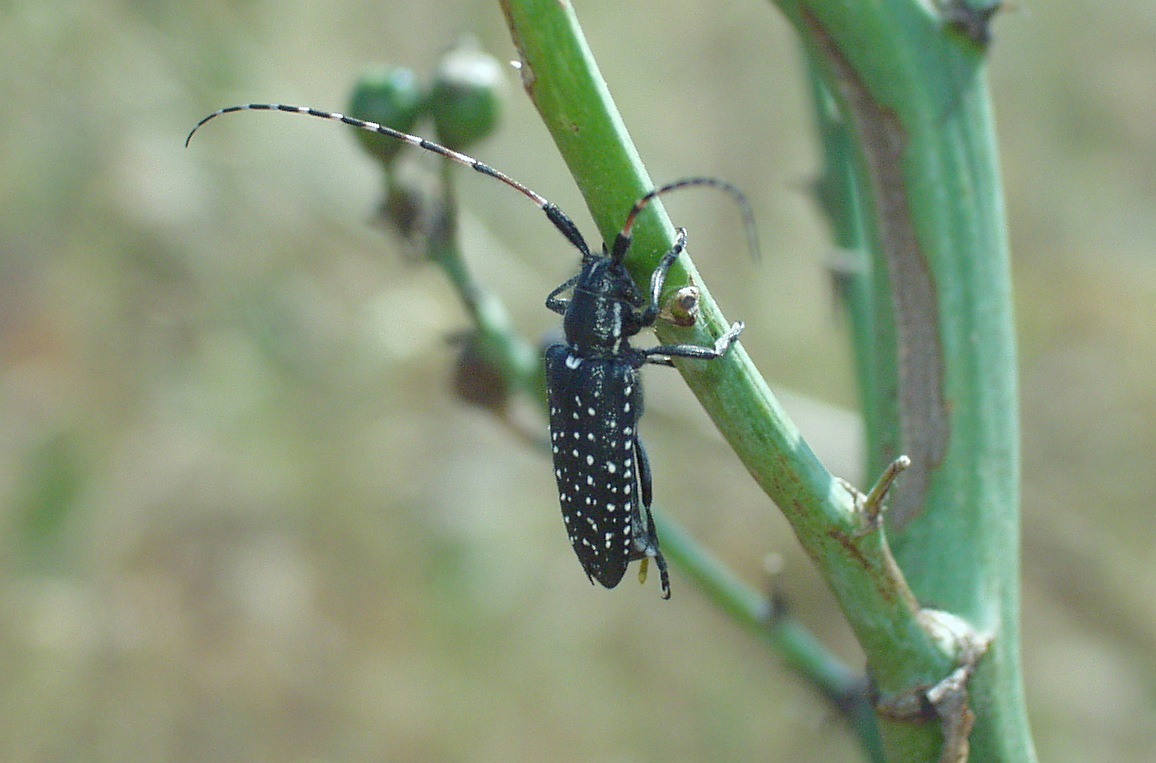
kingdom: Animalia
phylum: Arthropoda
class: Insecta
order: Coleoptera
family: Cerambycidae
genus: Agapanthia
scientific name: Agapanthia irrorata
